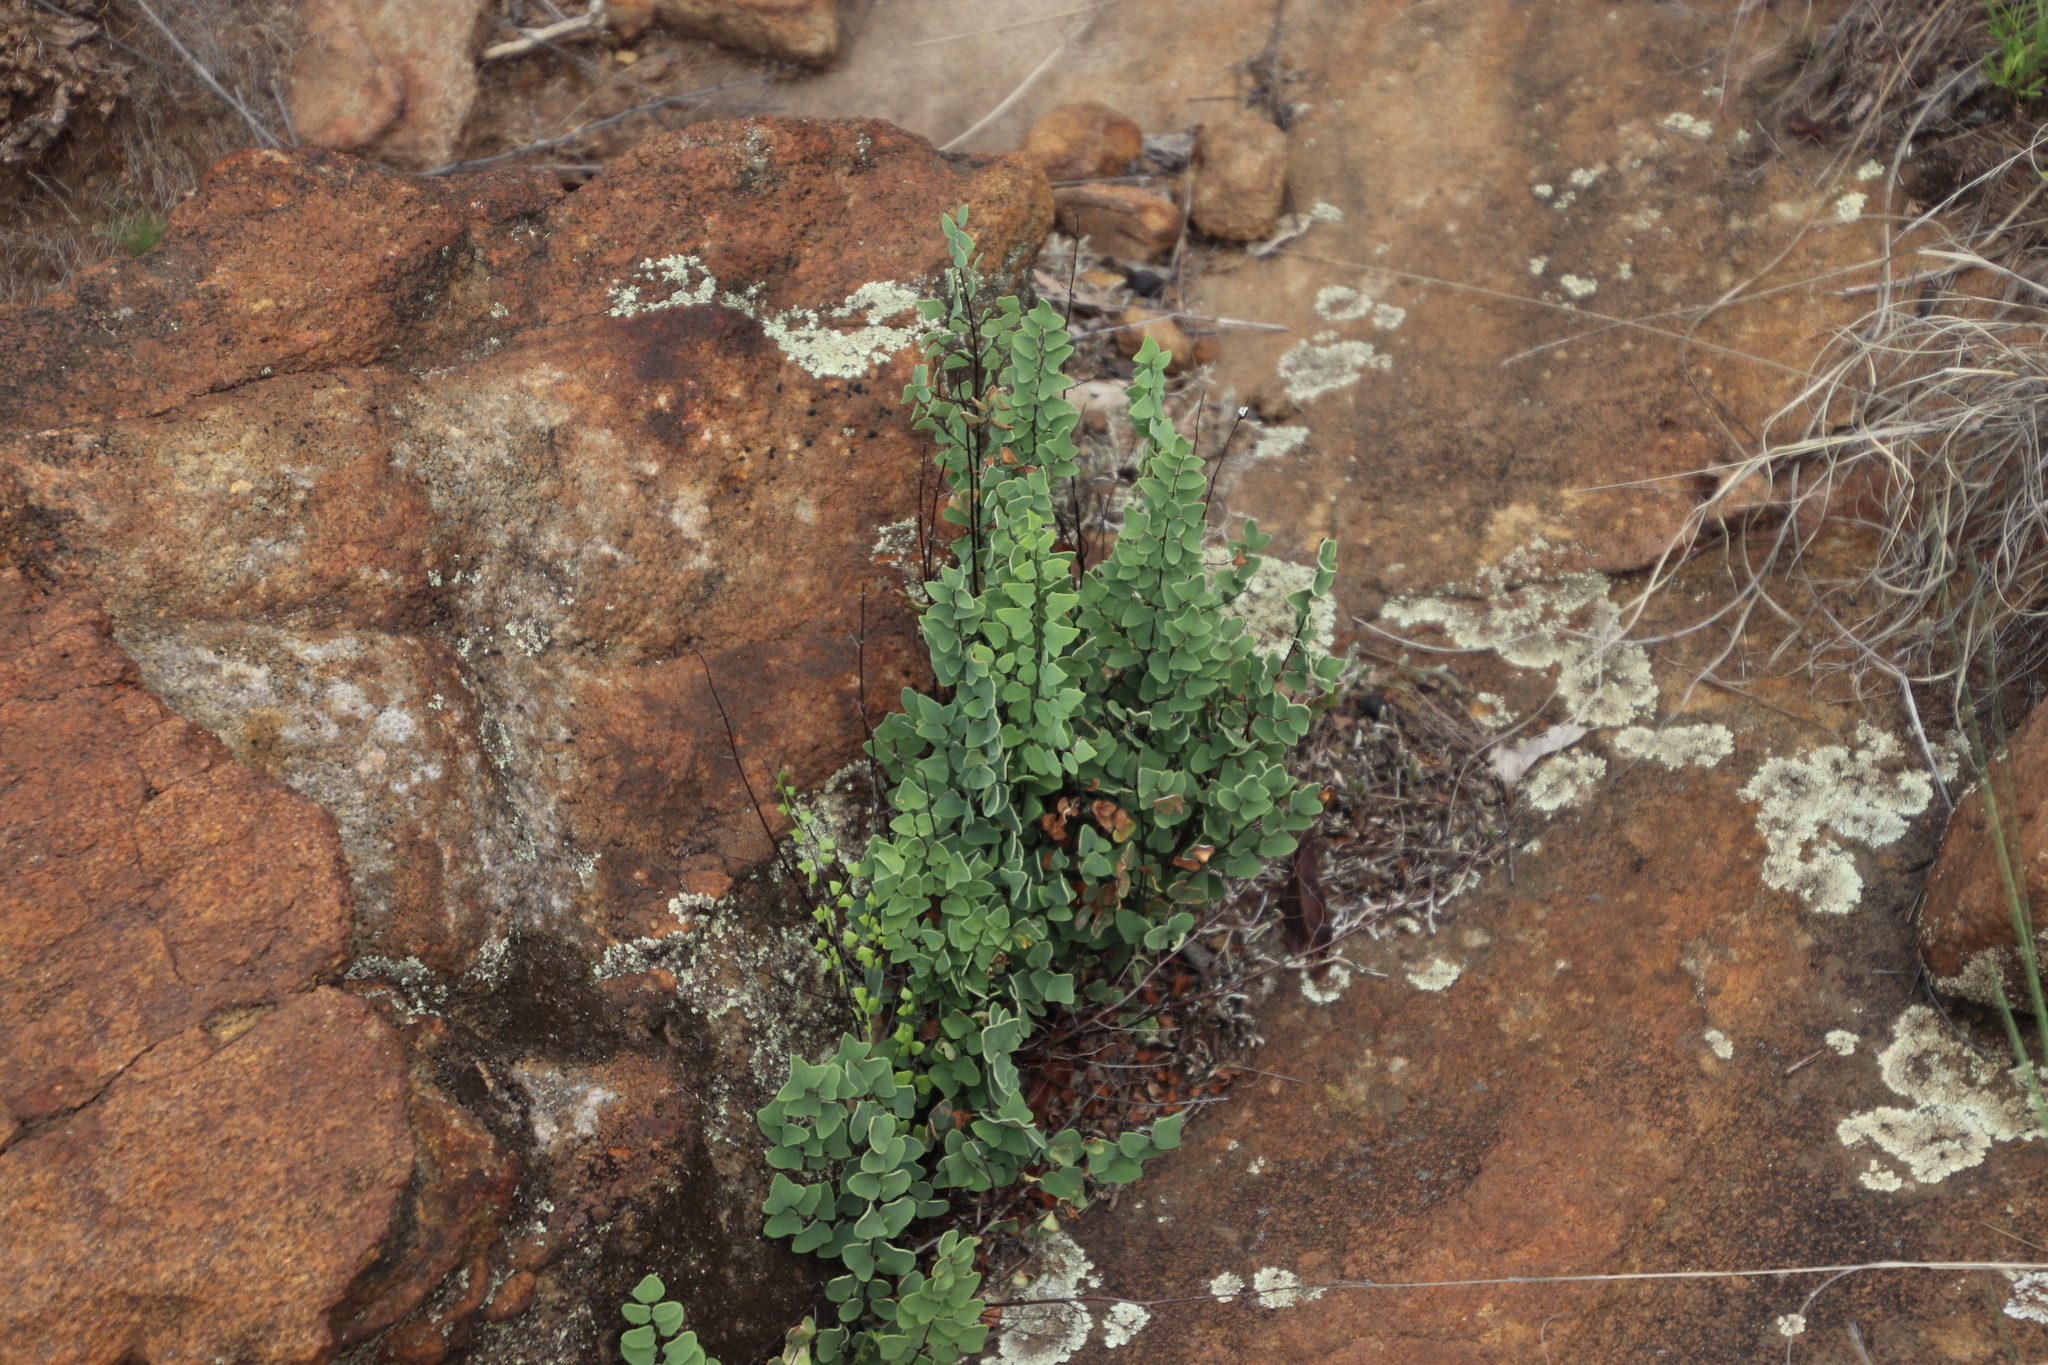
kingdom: Plantae
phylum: Tracheophyta
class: Polypodiopsida
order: Polypodiales
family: Pteridaceae
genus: Pellaea
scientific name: Pellaea calomelanos
